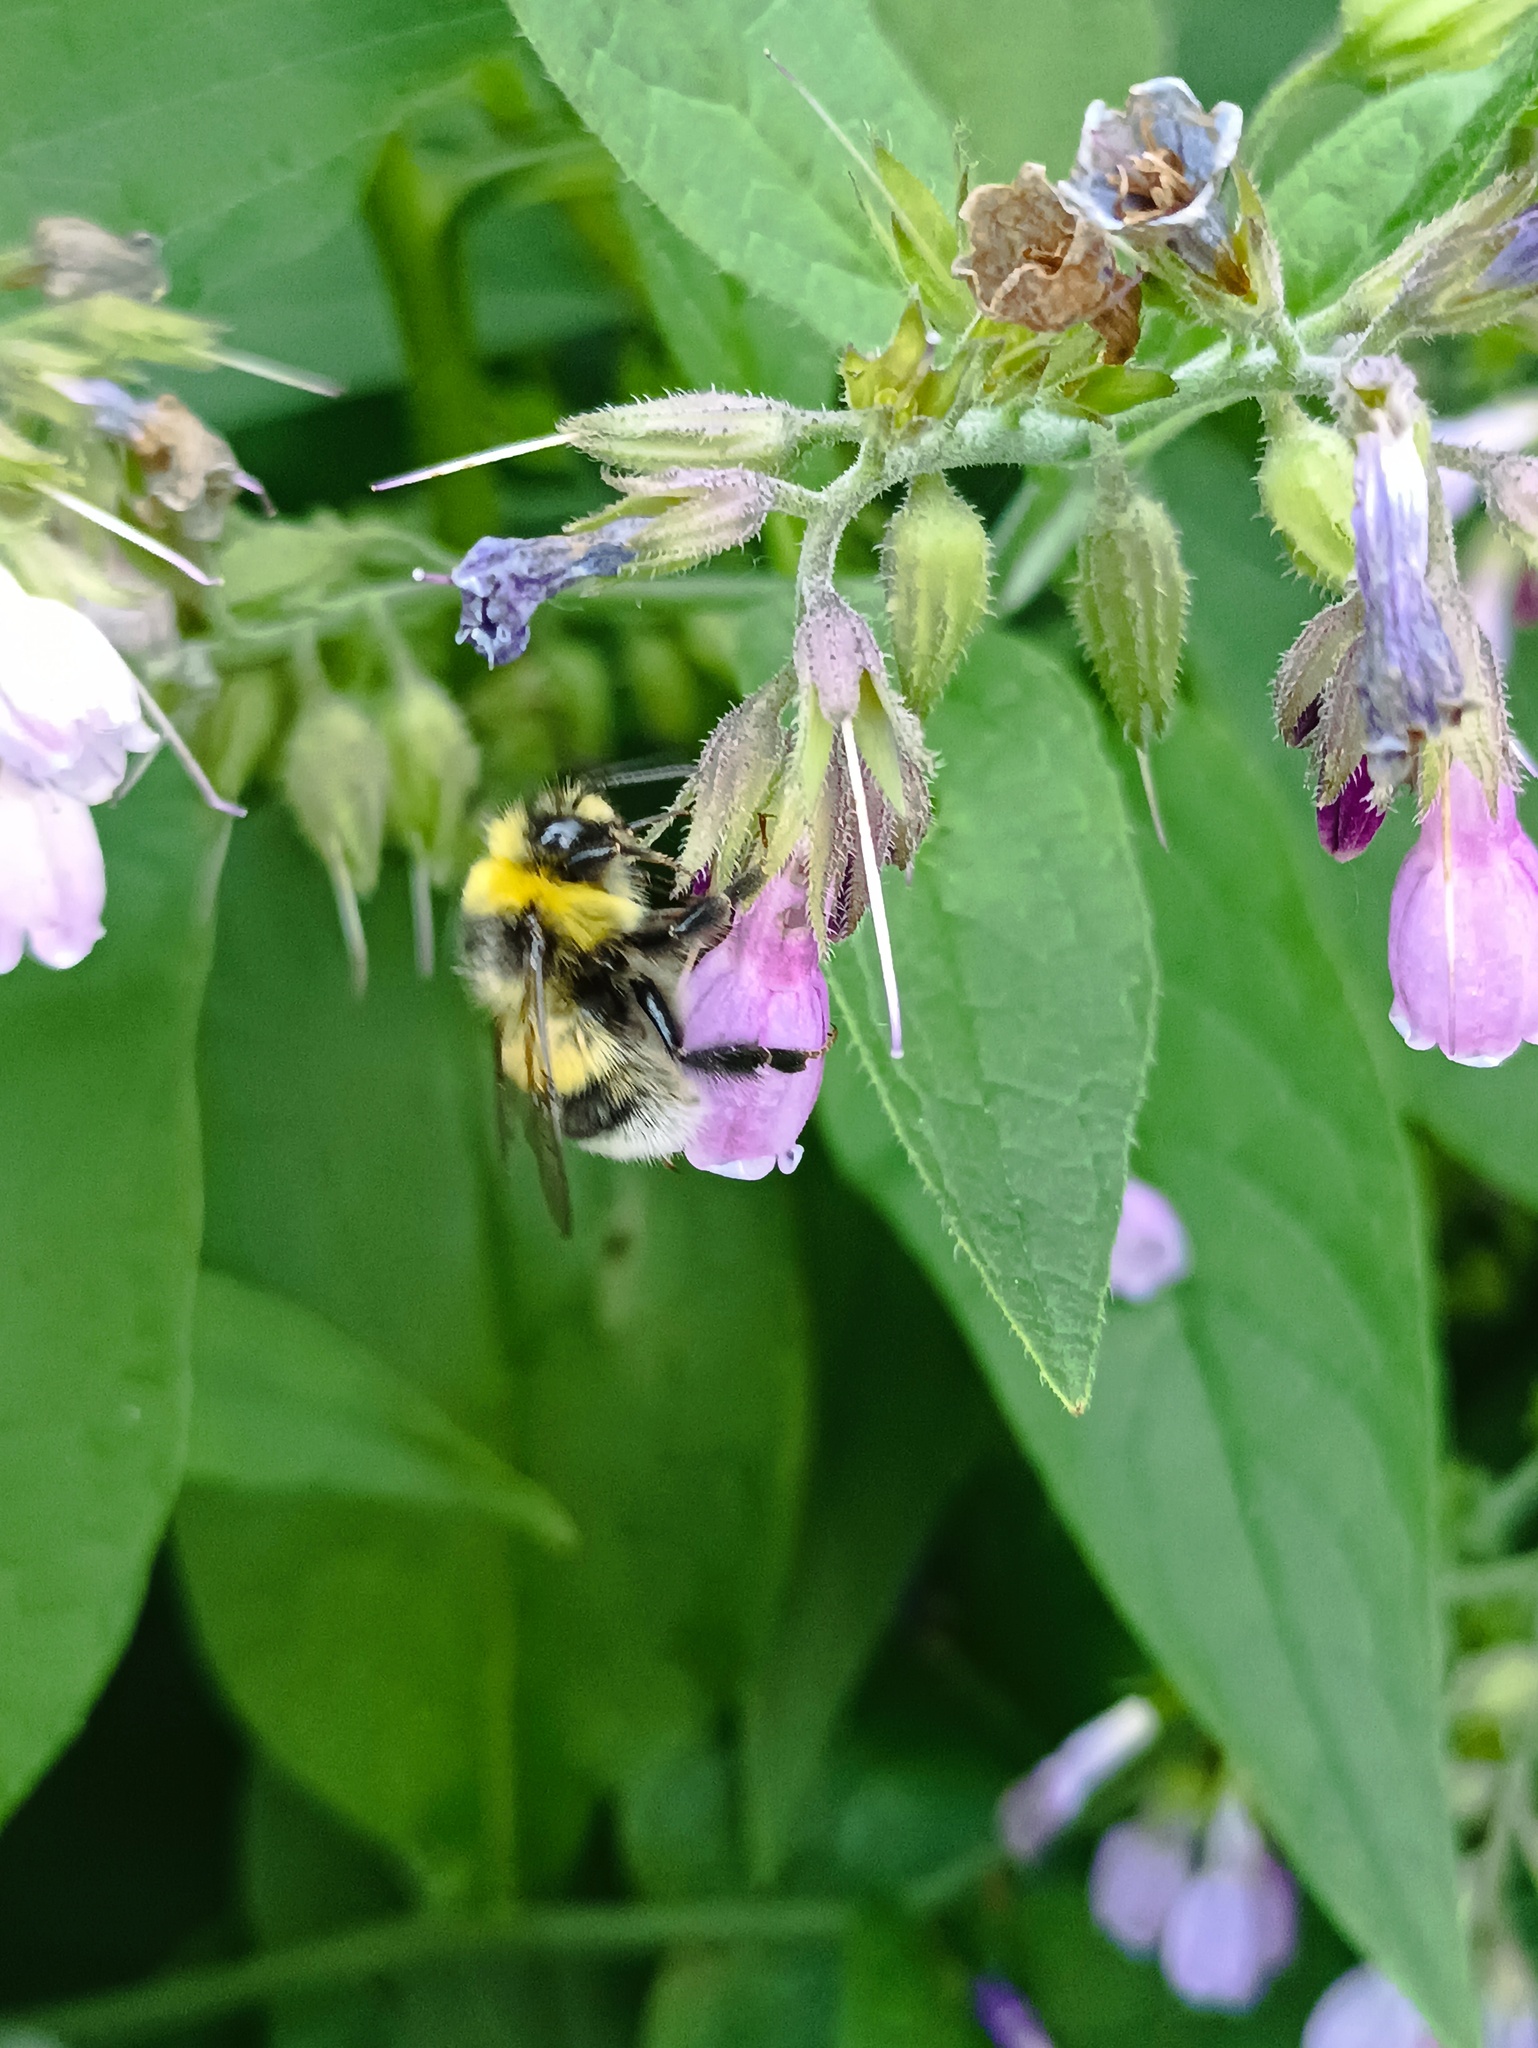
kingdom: Animalia
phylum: Arthropoda
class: Insecta
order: Hymenoptera
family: Apidae
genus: Bombus
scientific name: Bombus lucorum
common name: White-tailed bumblebee
